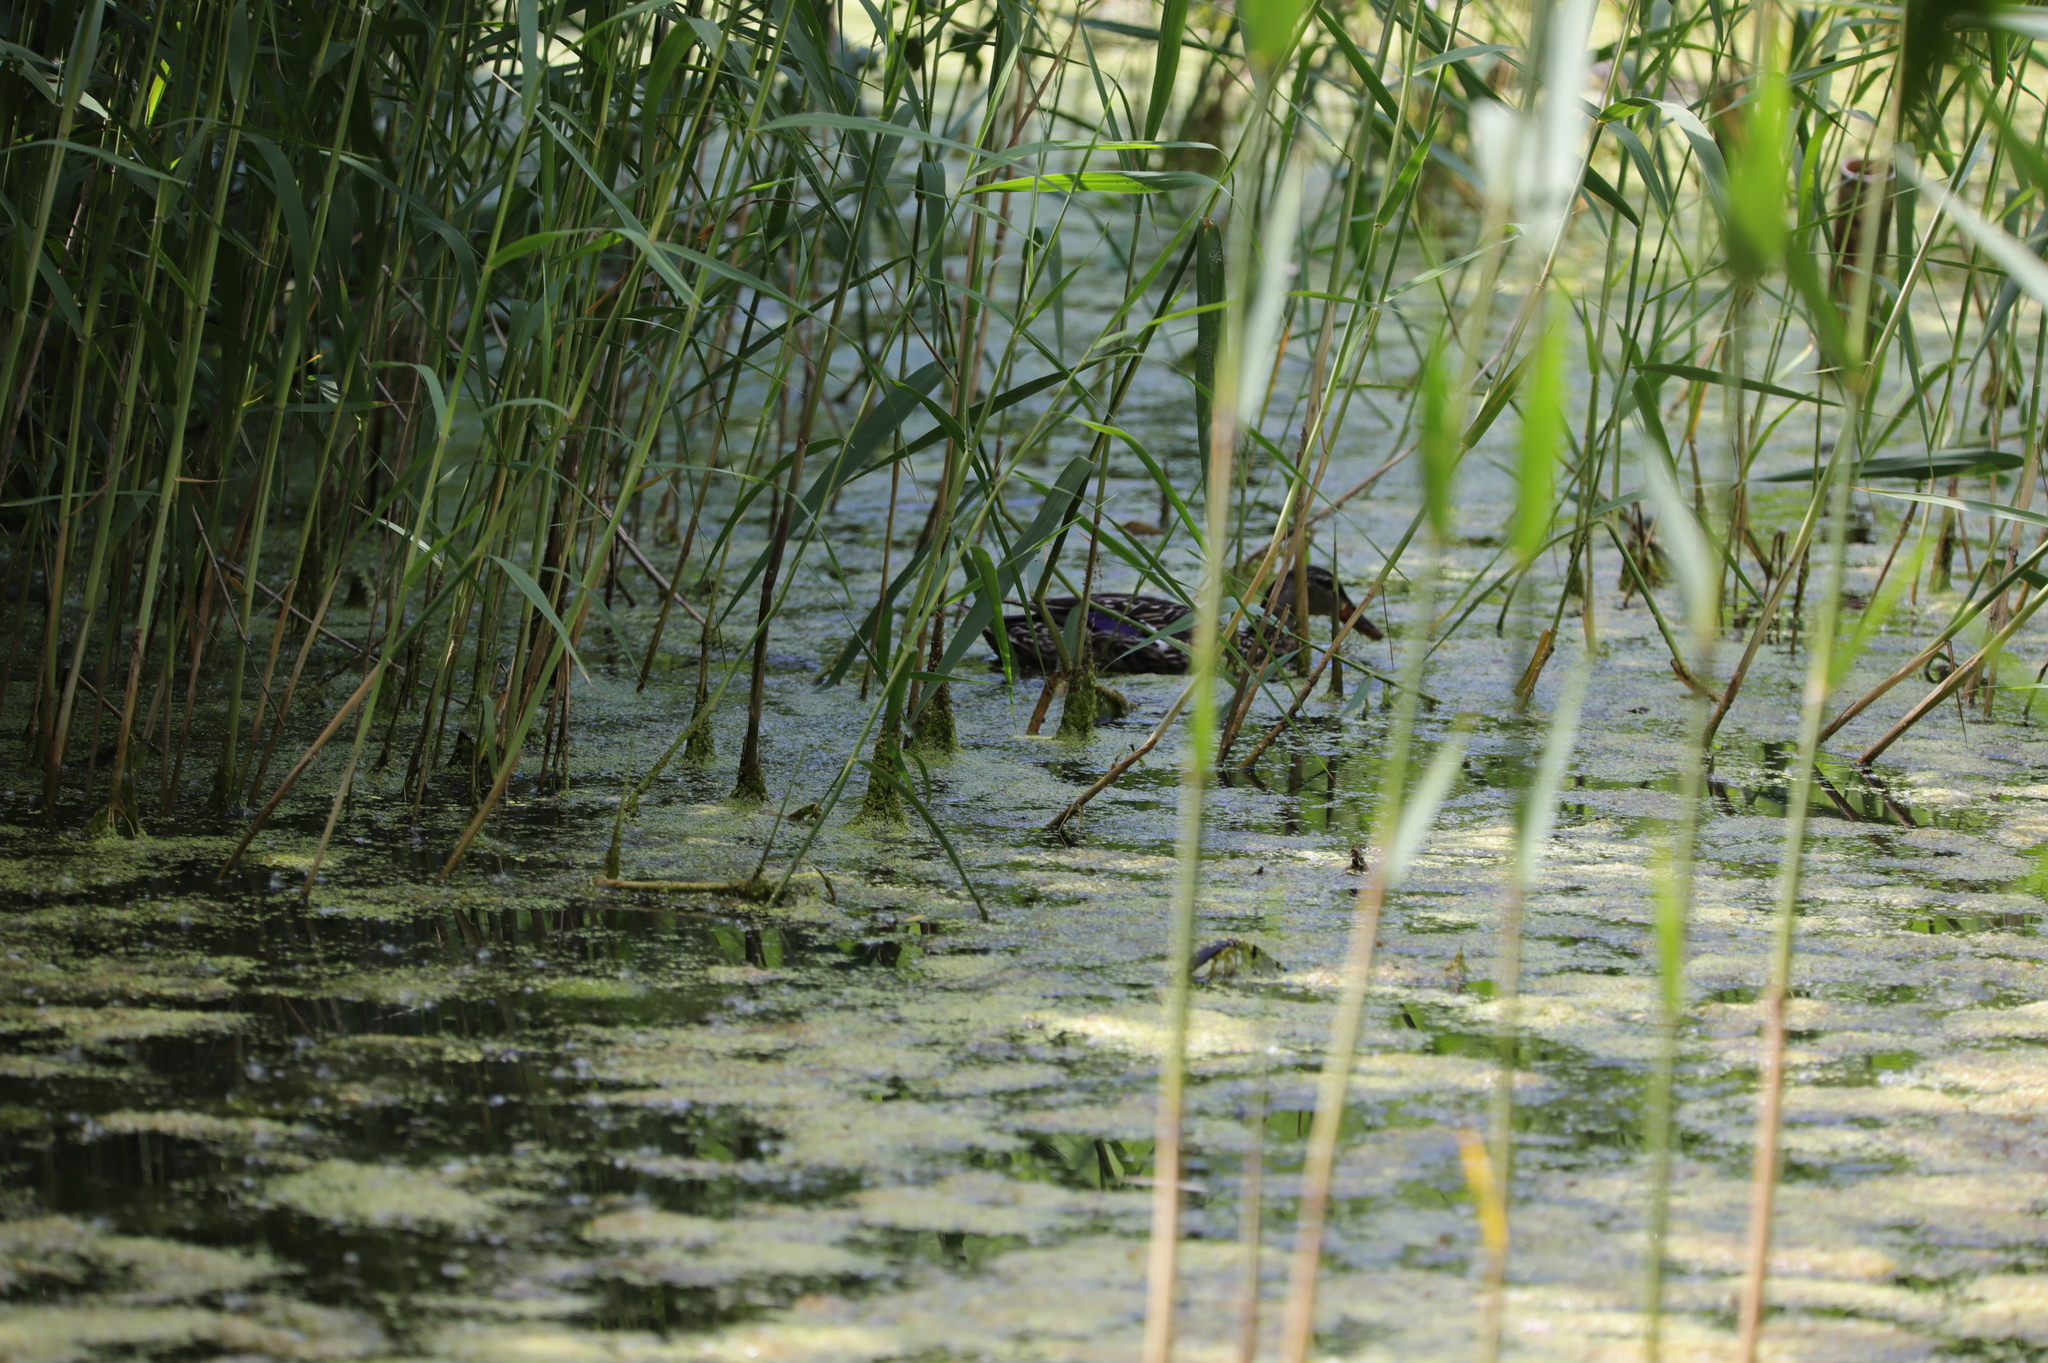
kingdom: Animalia
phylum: Chordata
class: Aves
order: Anseriformes
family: Anatidae
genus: Anas
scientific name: Anas platyrhynchos
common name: Mallard
